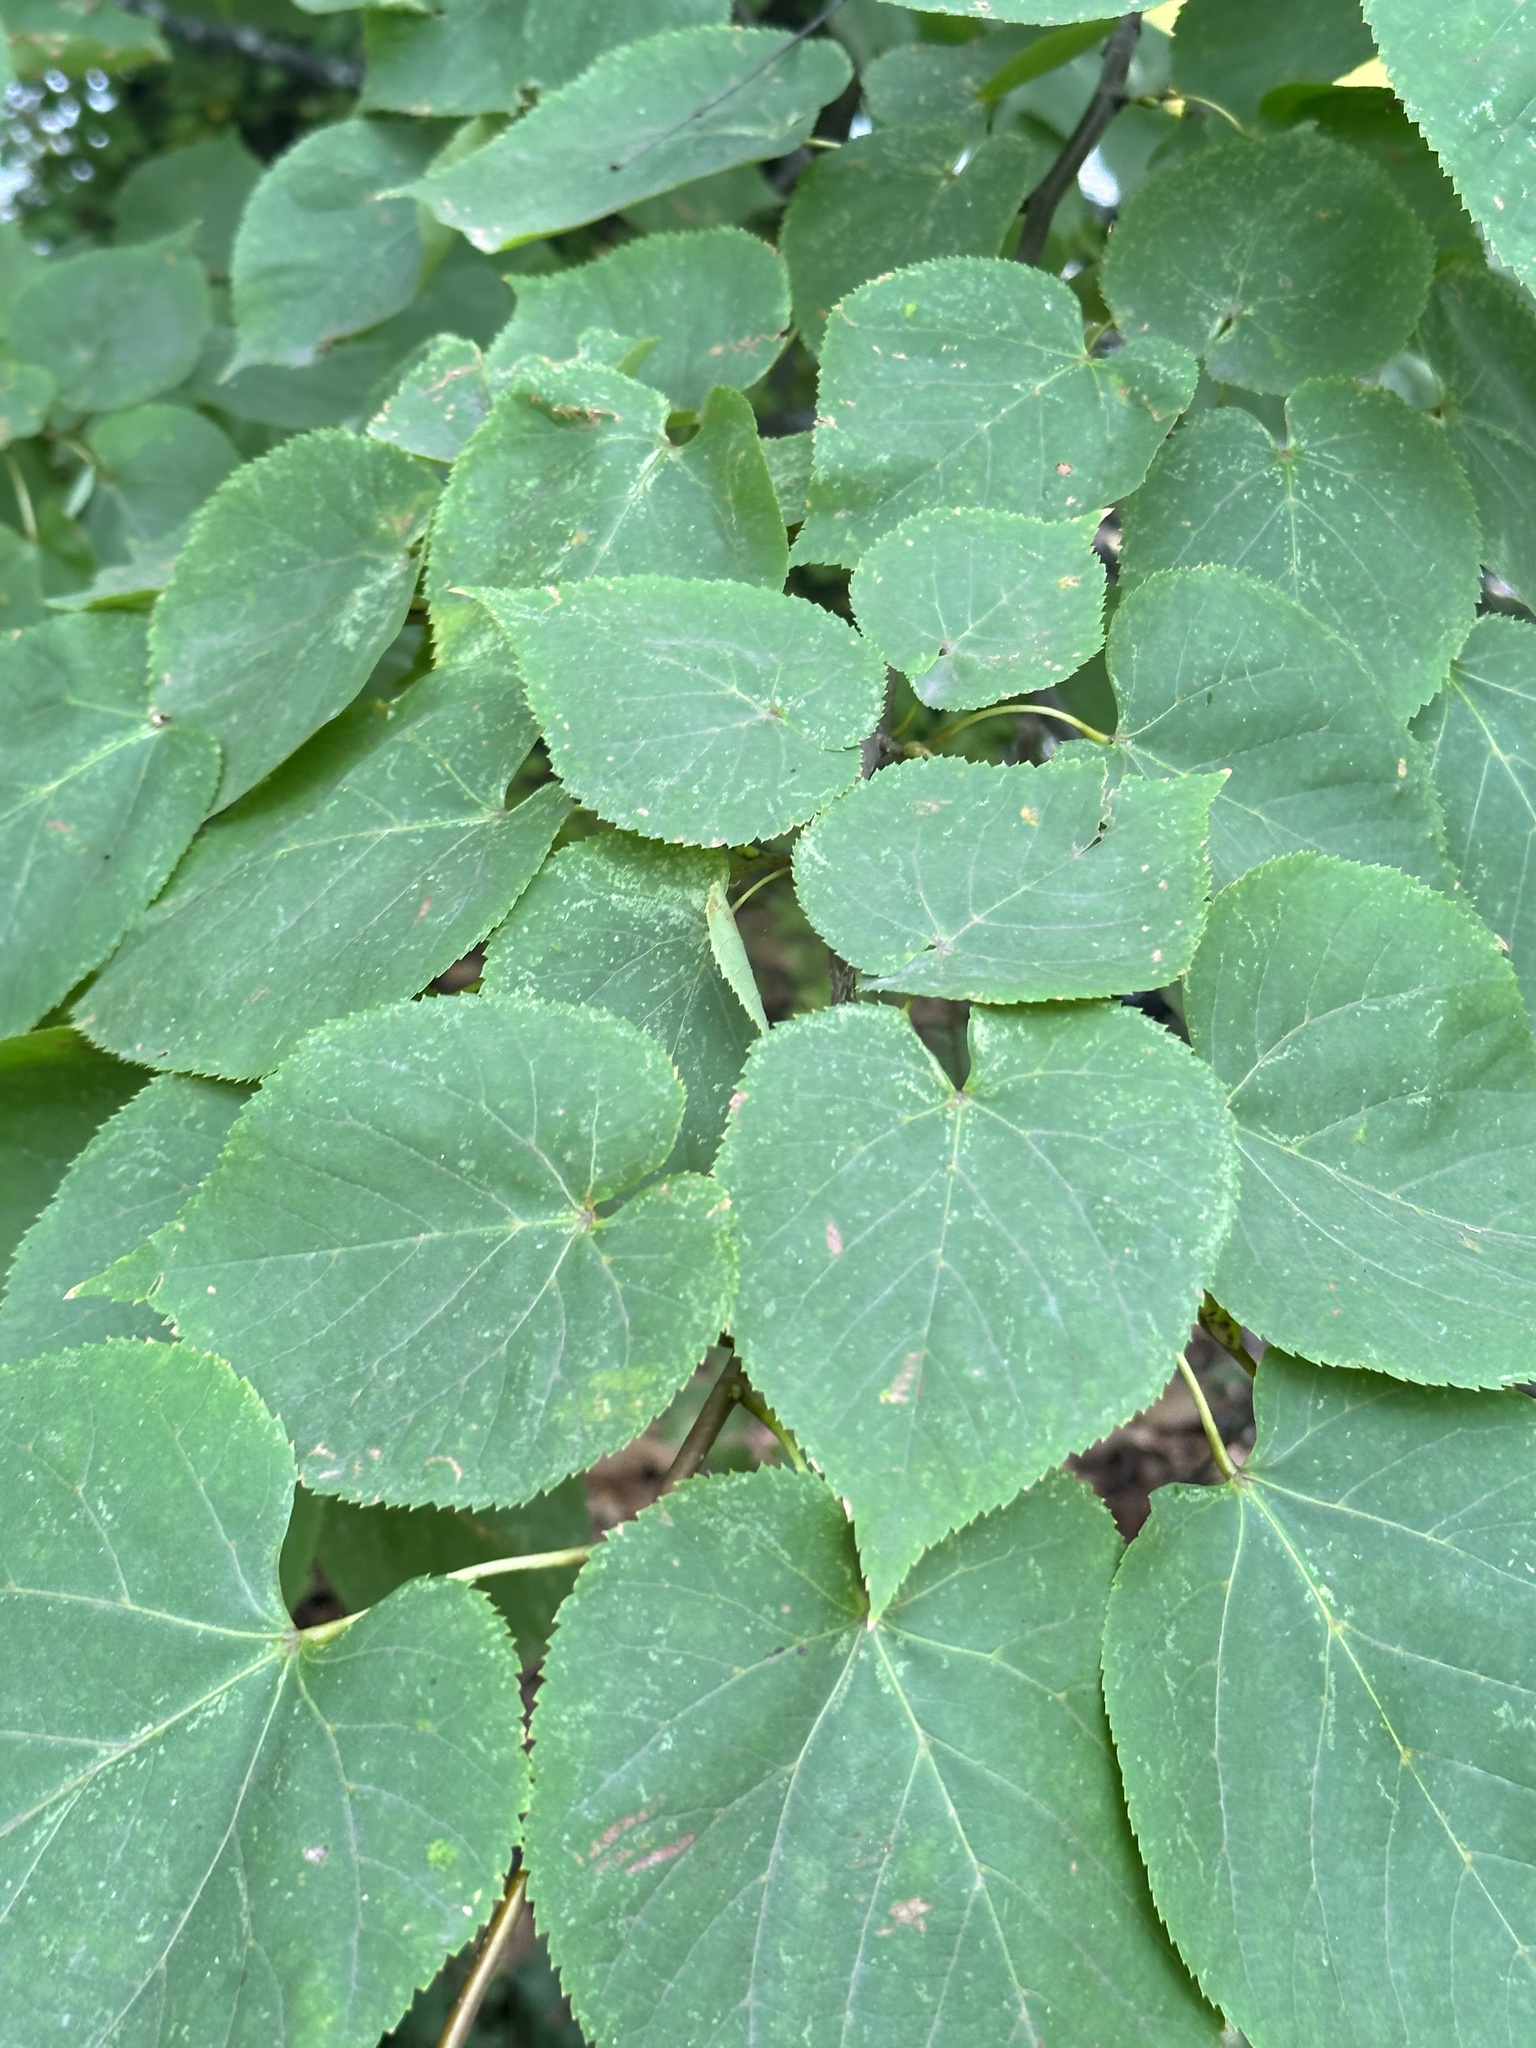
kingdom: Plantae
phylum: Tracheophyta
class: Magnoliopsida
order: Malvales
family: Malvaceae
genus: Tilia
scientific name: Tilia americana
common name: Basswood
